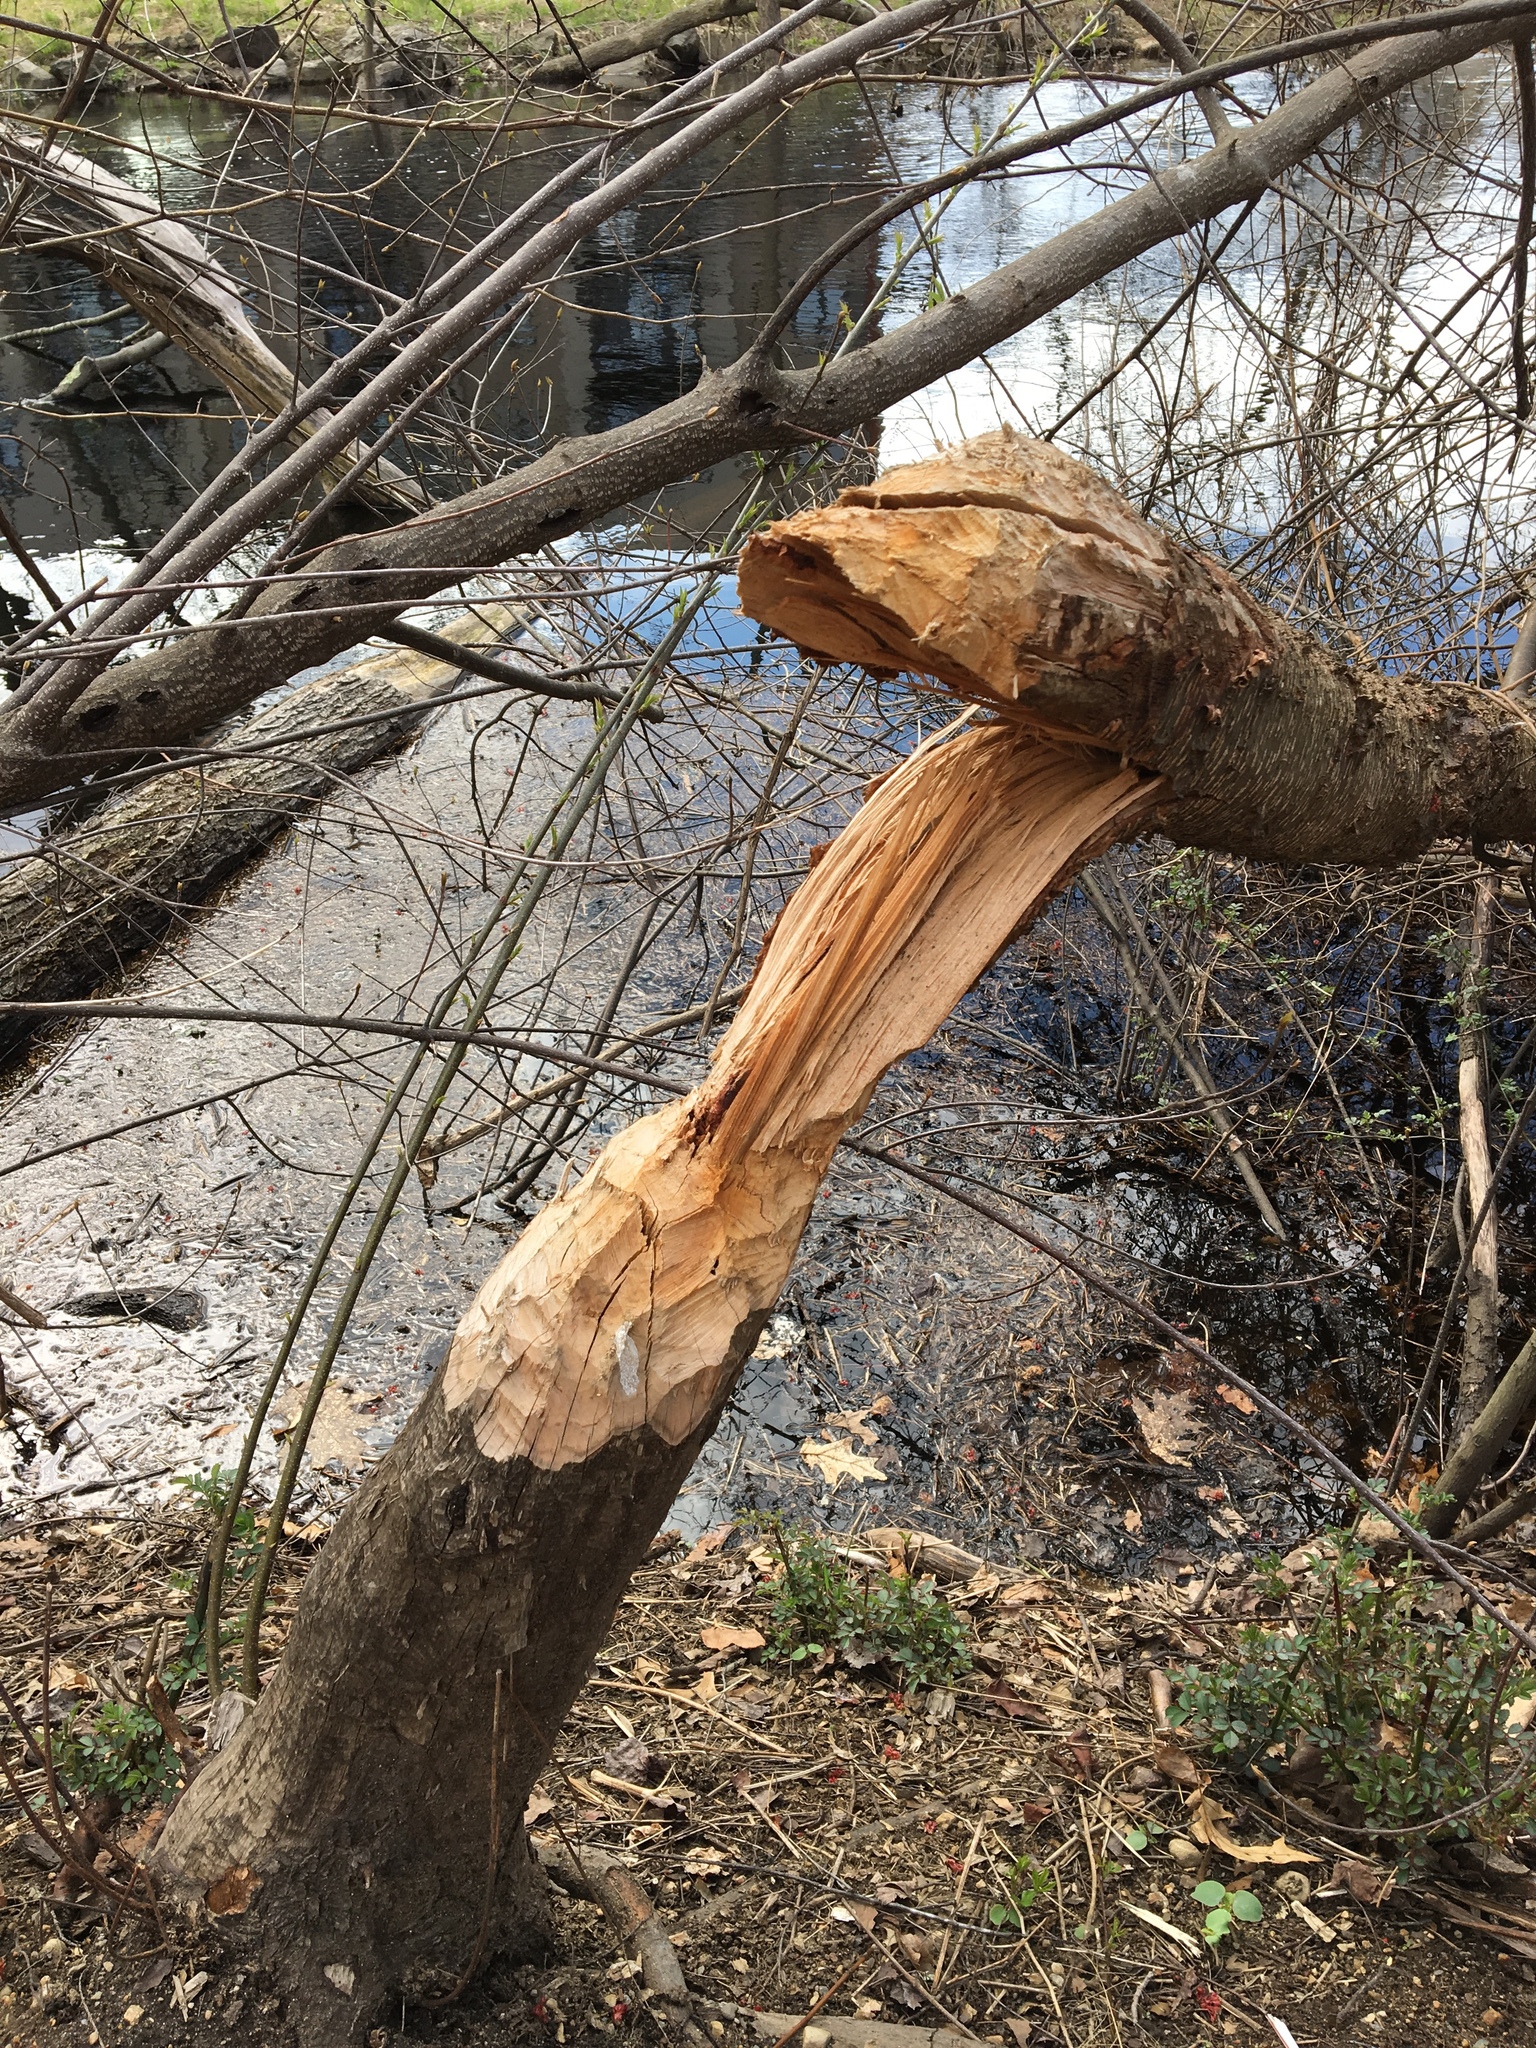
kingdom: Animalia
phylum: Chordata
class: Mammalia
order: Rodentia
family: Castoridae
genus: Castor
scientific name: Castor canadensis
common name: American beaver
